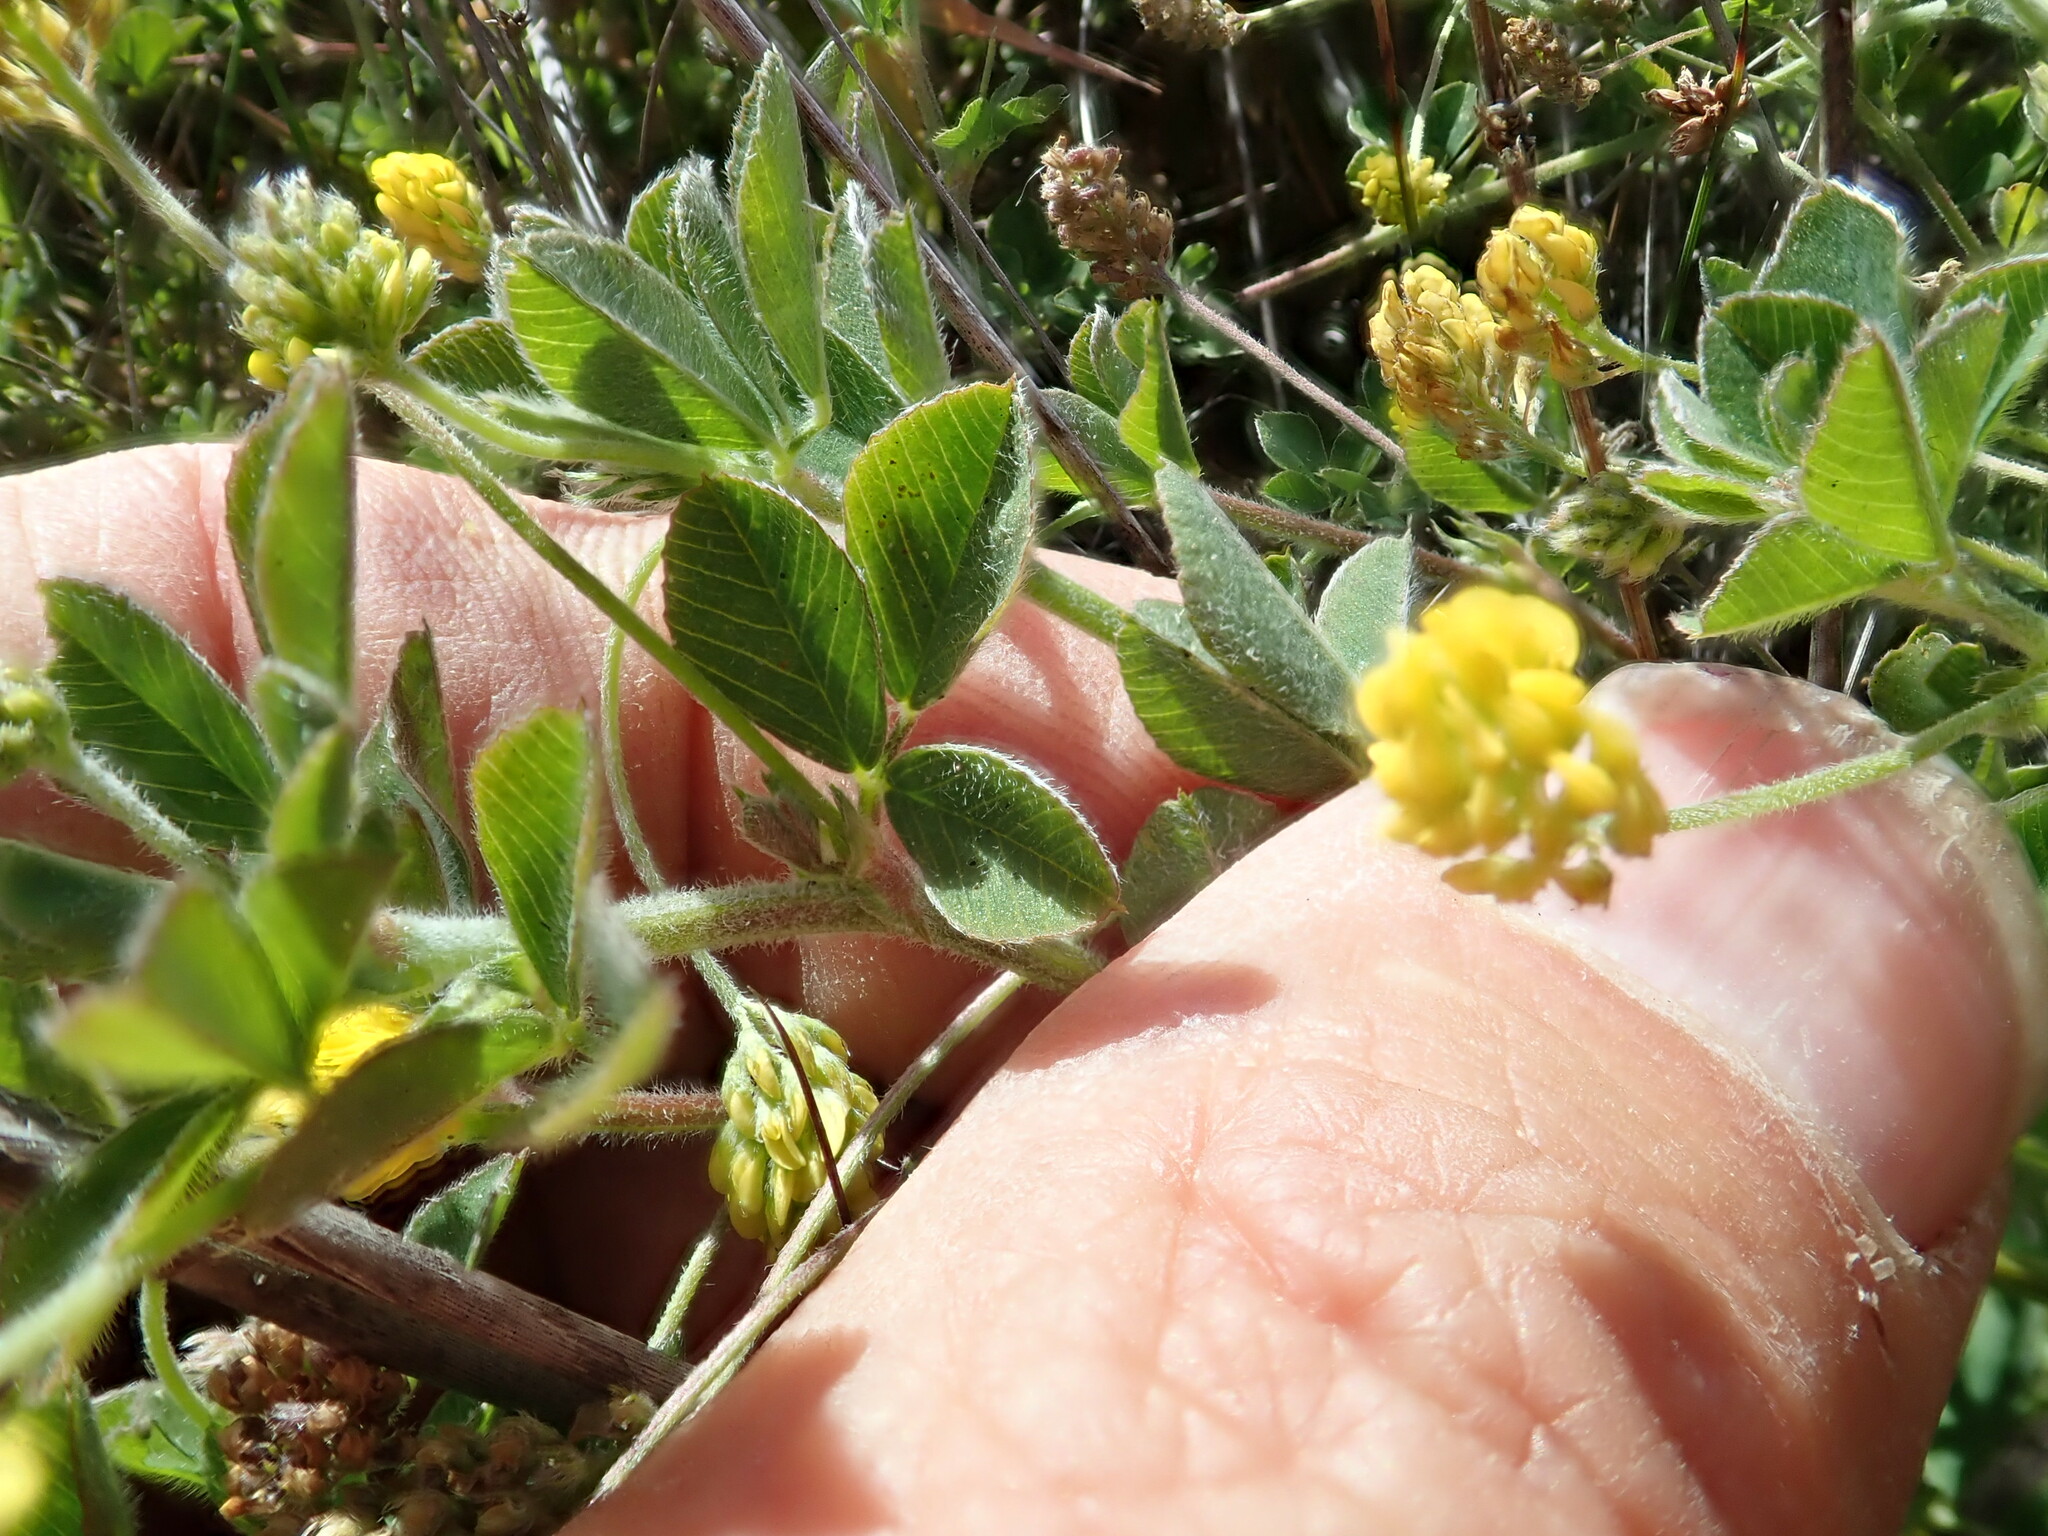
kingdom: Plantae
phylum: Tracheophyta
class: Magnoliopsida
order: Fabales
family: Fabaceae
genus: Medicago
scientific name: Medicago lupulina
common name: Black medick
